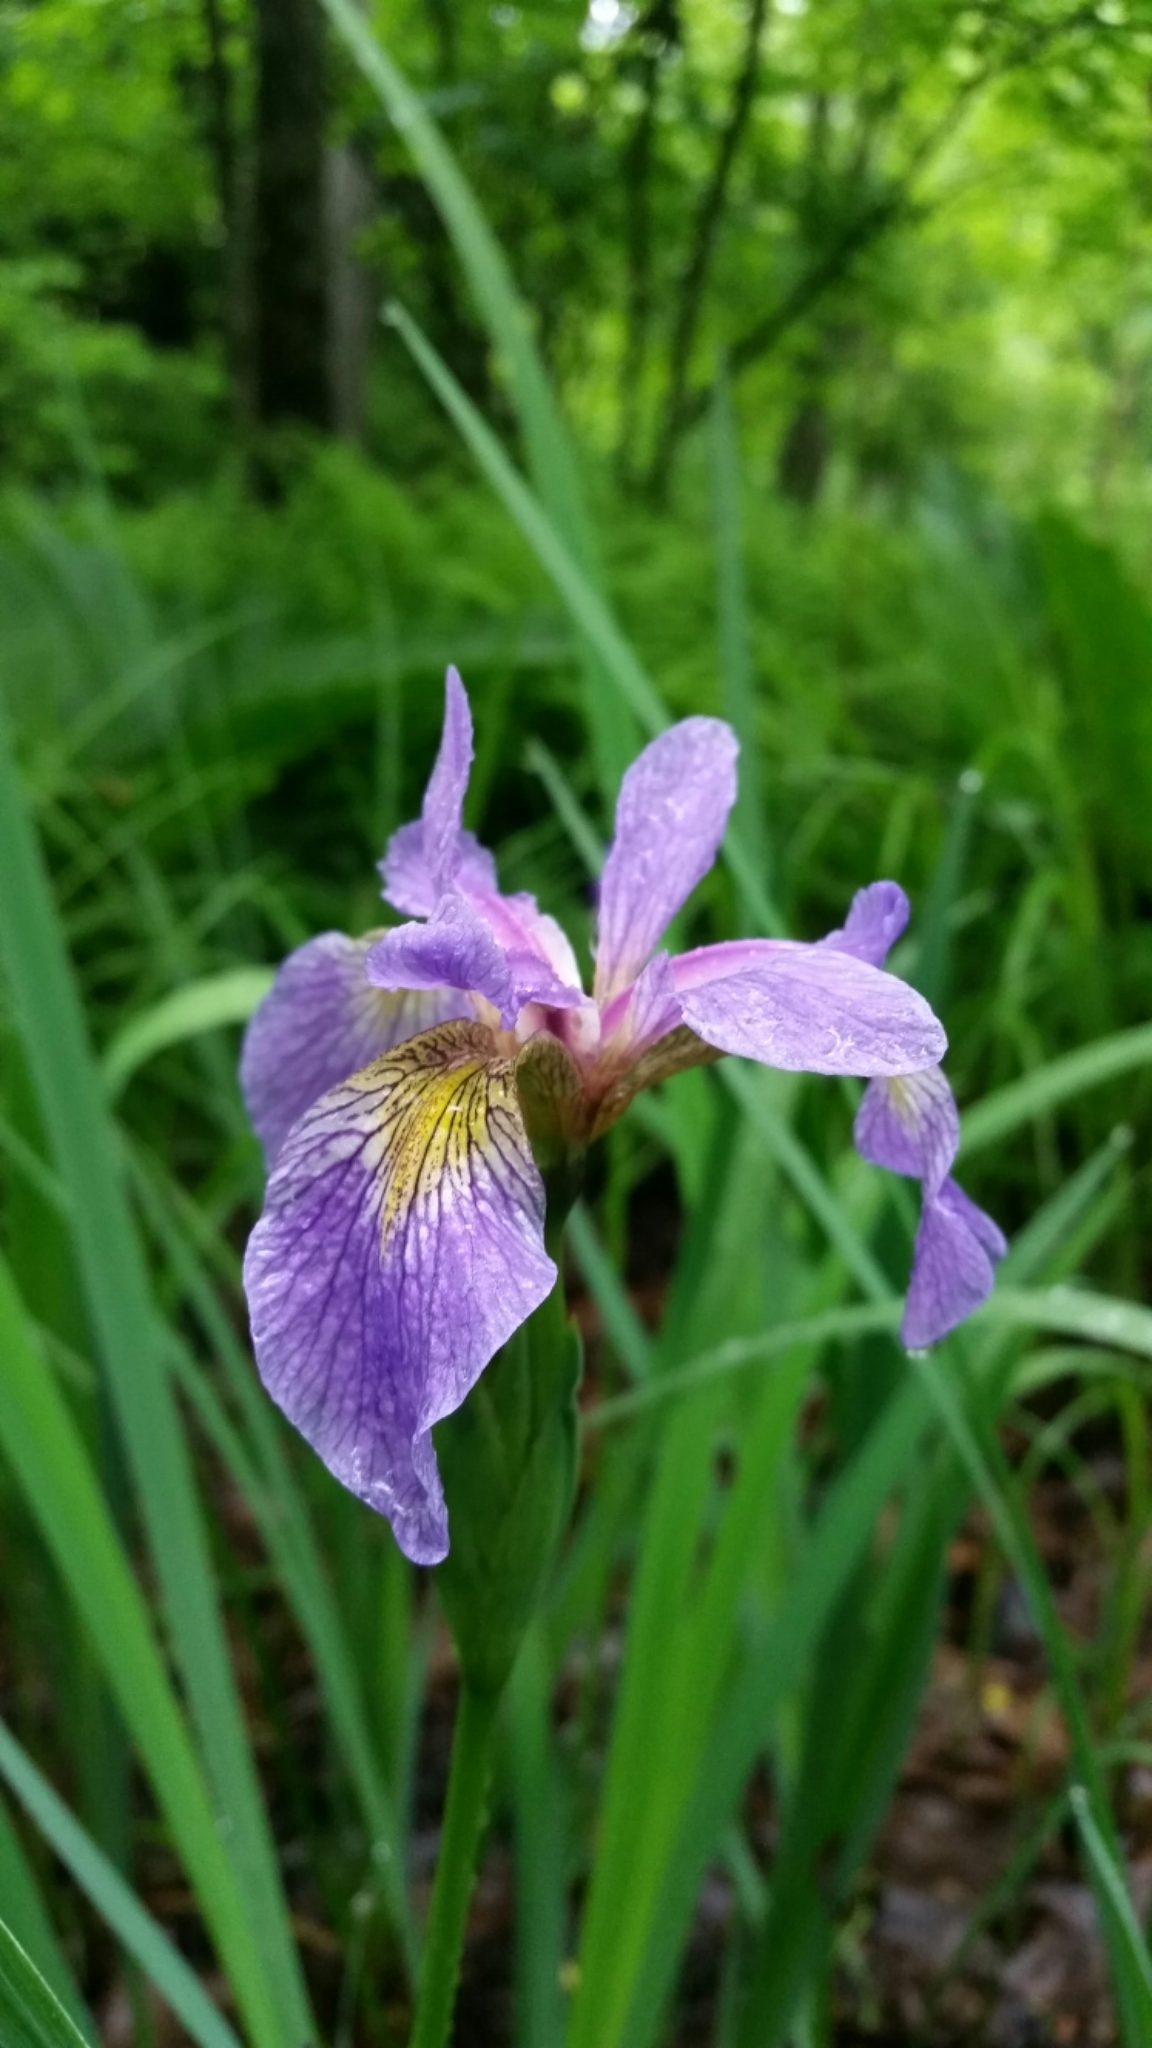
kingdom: Plantae
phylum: Tracheophyta
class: Liliopsida
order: Asparagales
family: Iridaceae
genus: Iris
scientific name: Iris versicolor
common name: Purple iris
